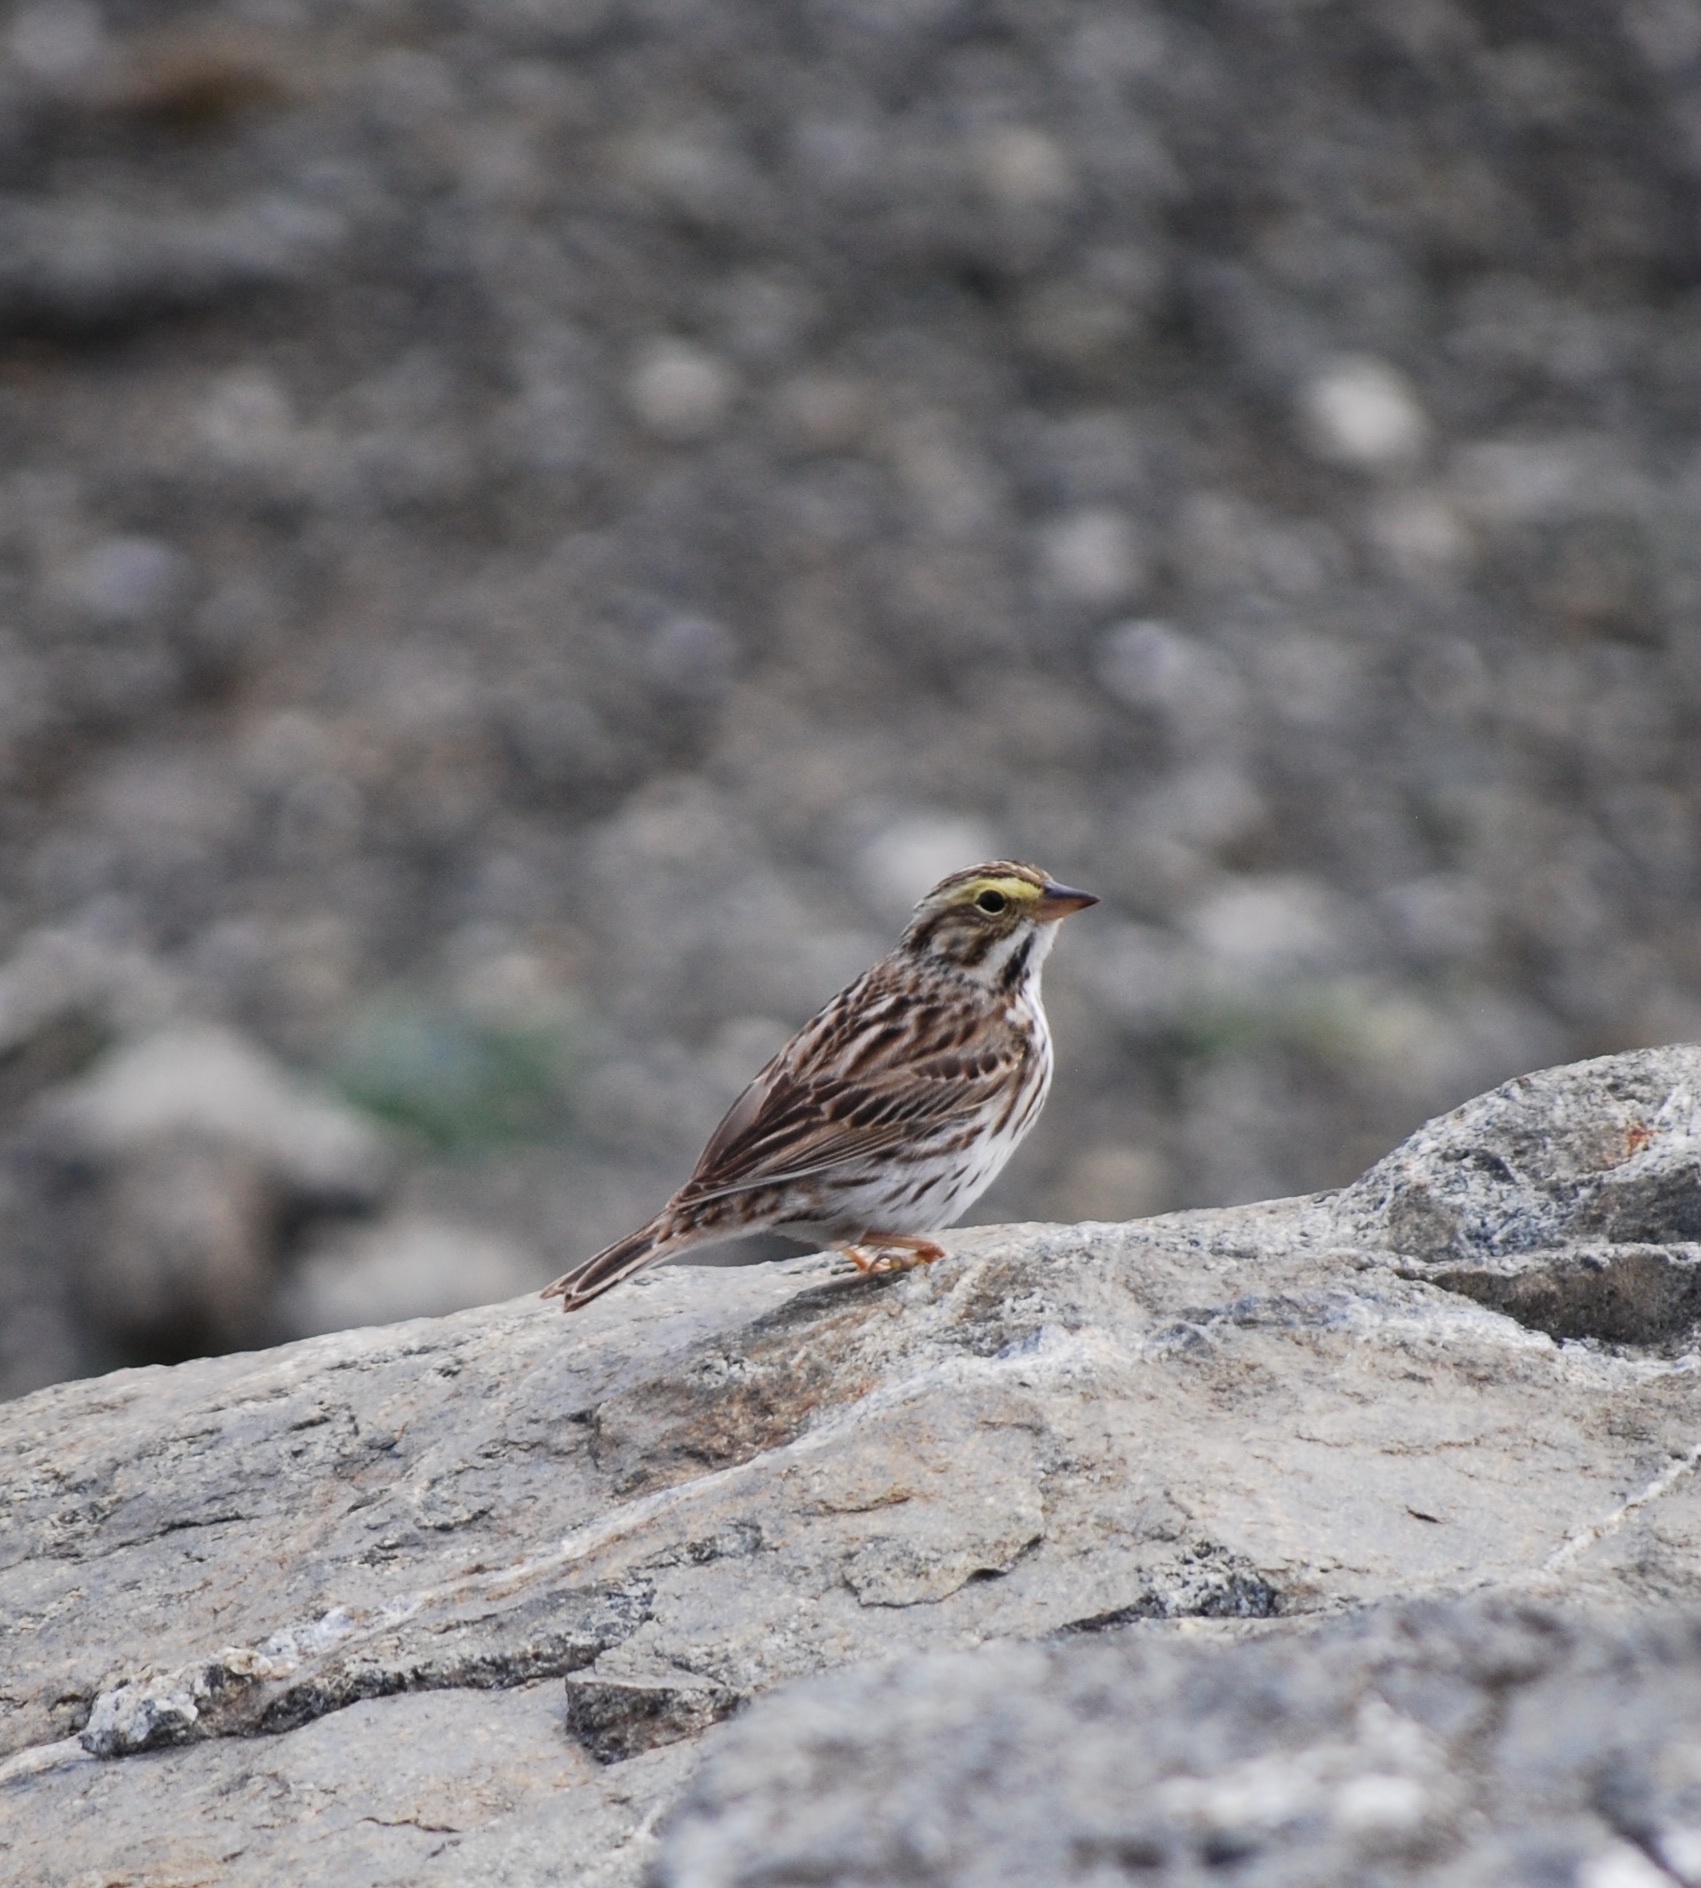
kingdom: Animalia
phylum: Chordata
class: Aves
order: Passeriformes
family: Passerellidae
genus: Passerculus
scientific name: Passerculus sandwichensis
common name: Savannah sparrow
